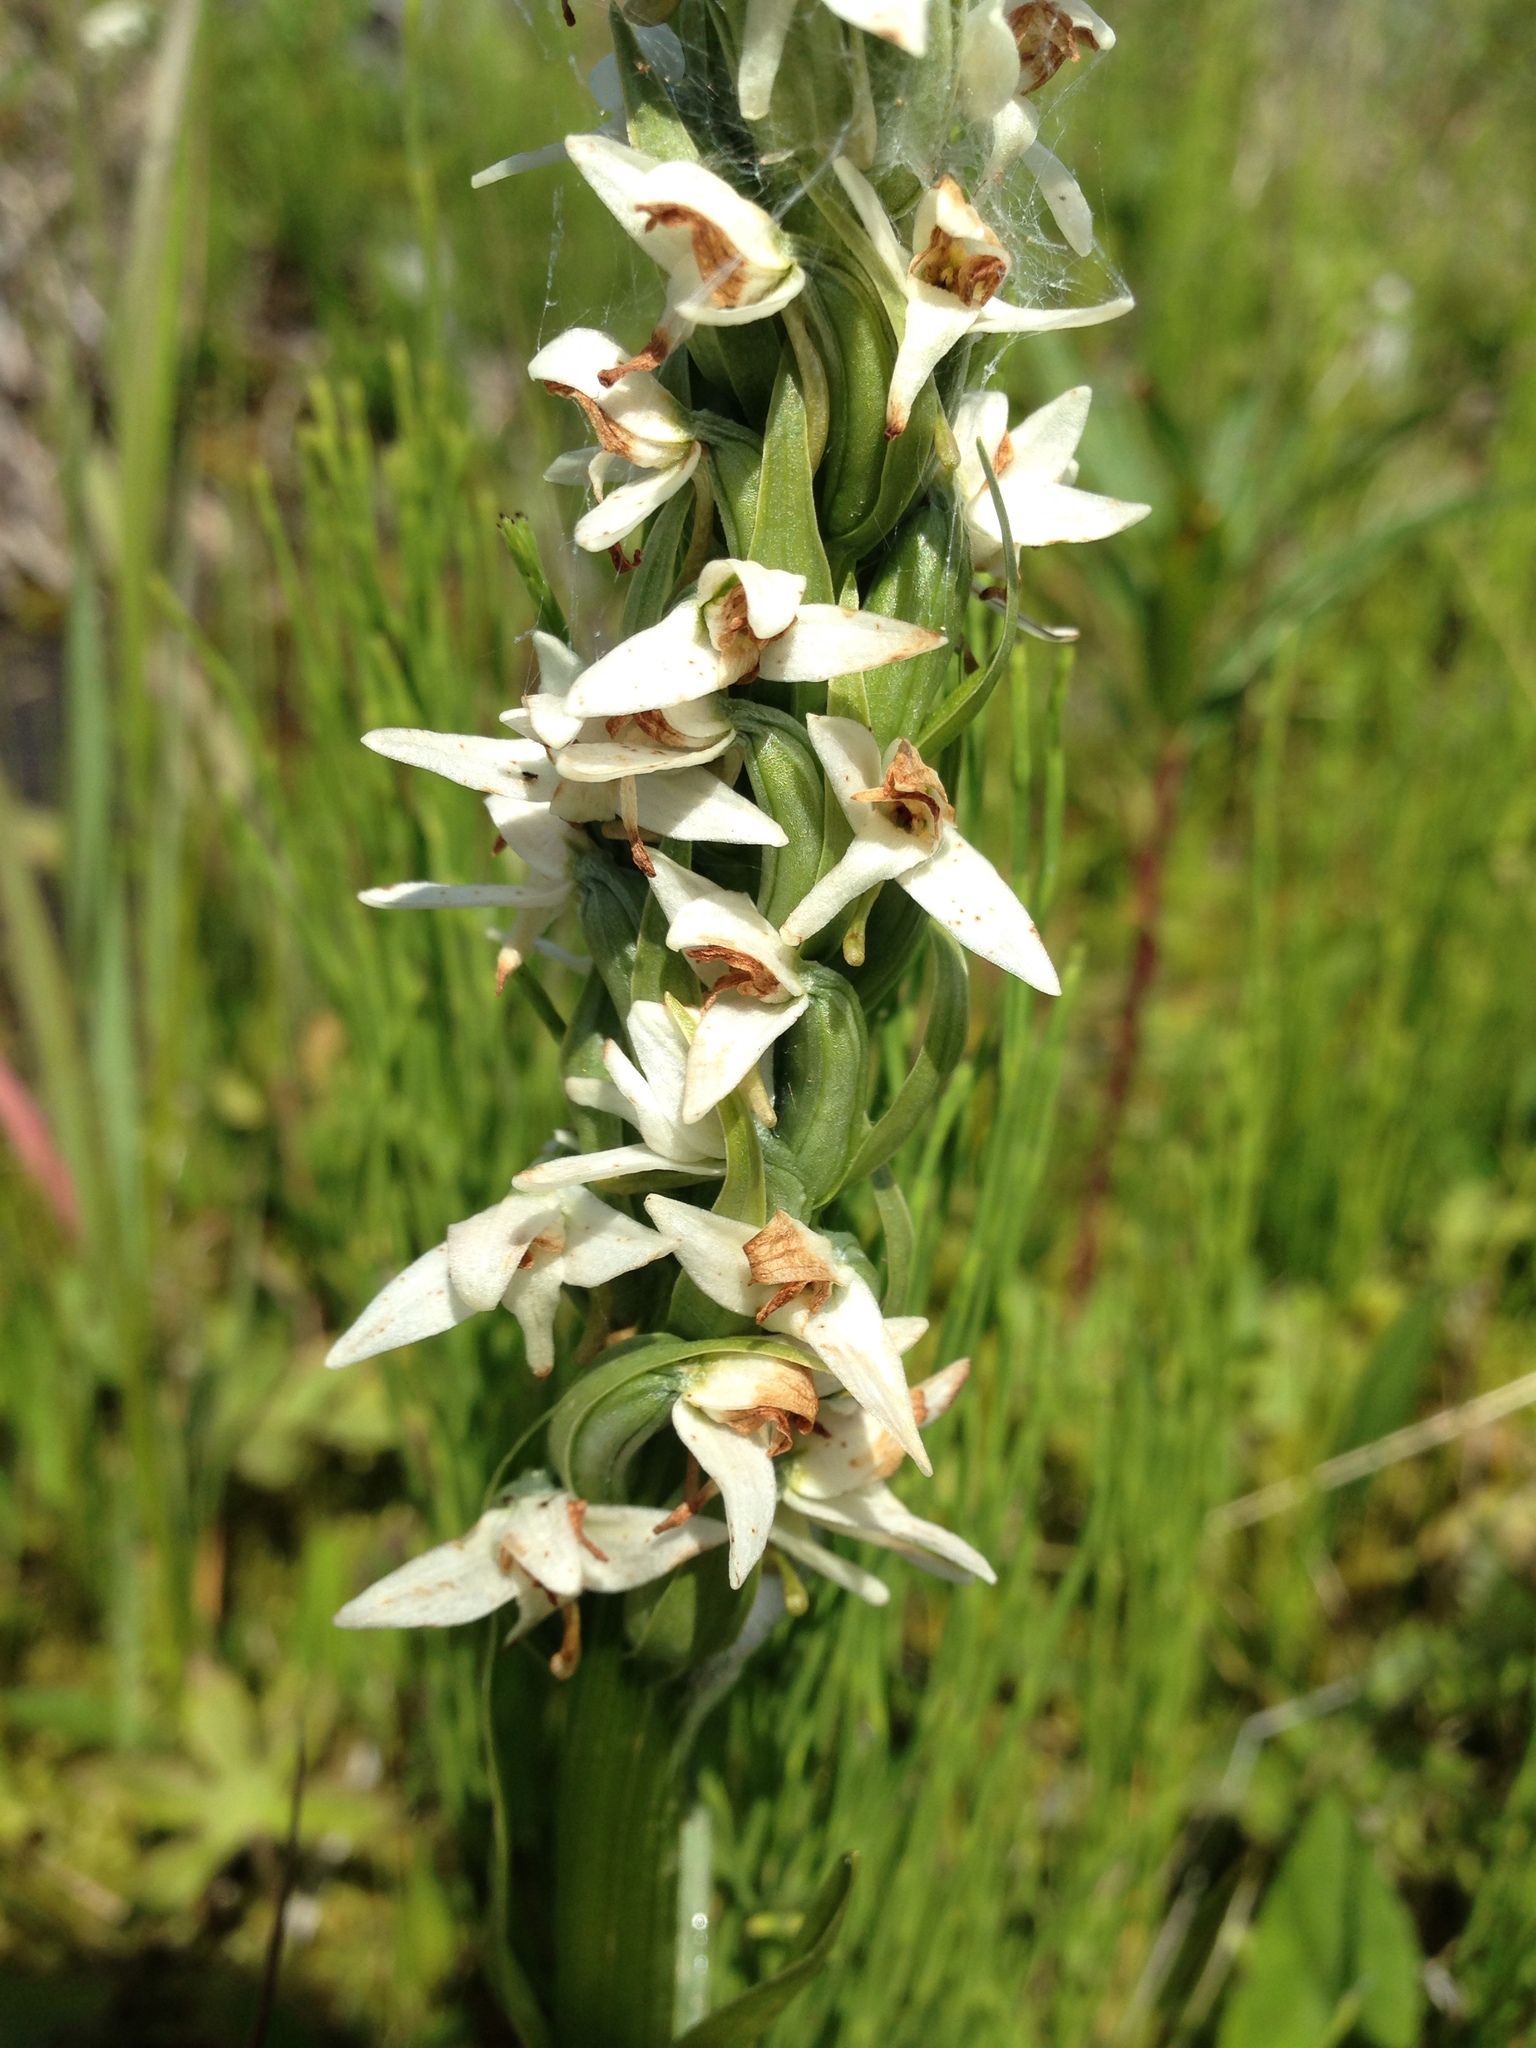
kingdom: Plantae
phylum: Tracheophyta
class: Liliopsida
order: Asparagales
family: Orchidaceae
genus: Platanthera
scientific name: Platanthera dilatata
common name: Bog candles
